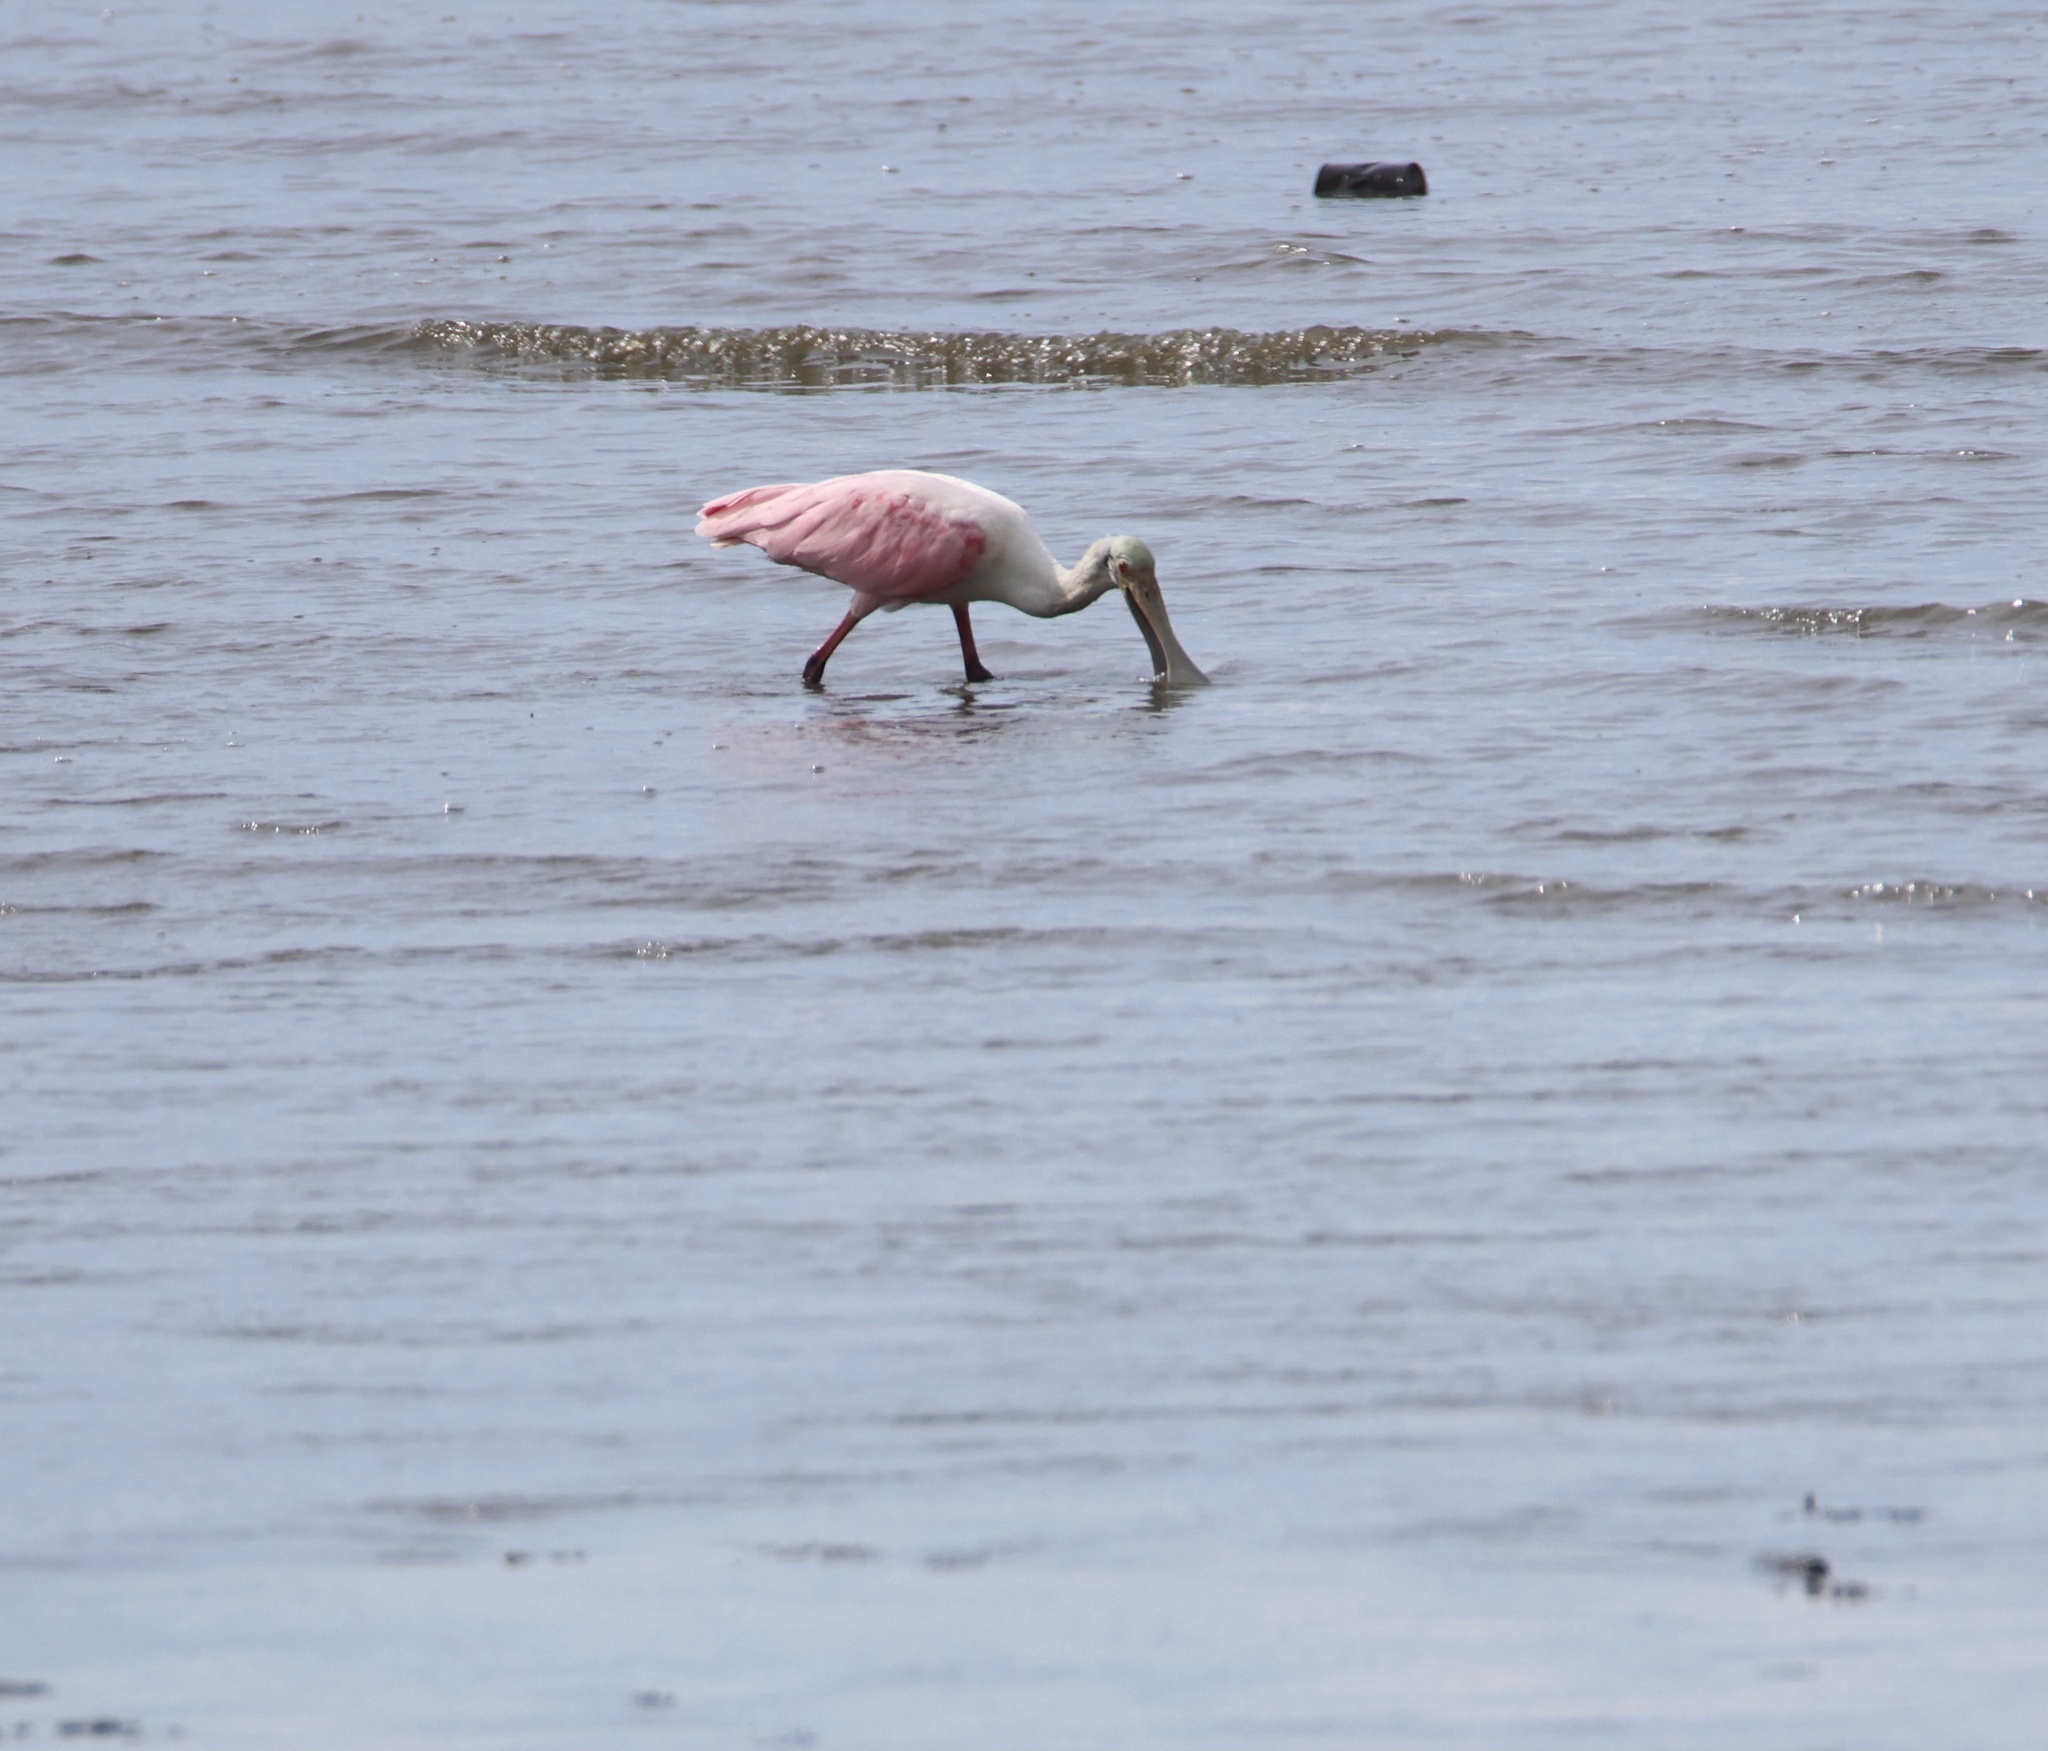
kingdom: Animalia
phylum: Chordata
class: Aves
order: Pelecaniformes
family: Threskiornithidae
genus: Platalea
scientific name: Platalea ajaja
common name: Roseate spoonbill
